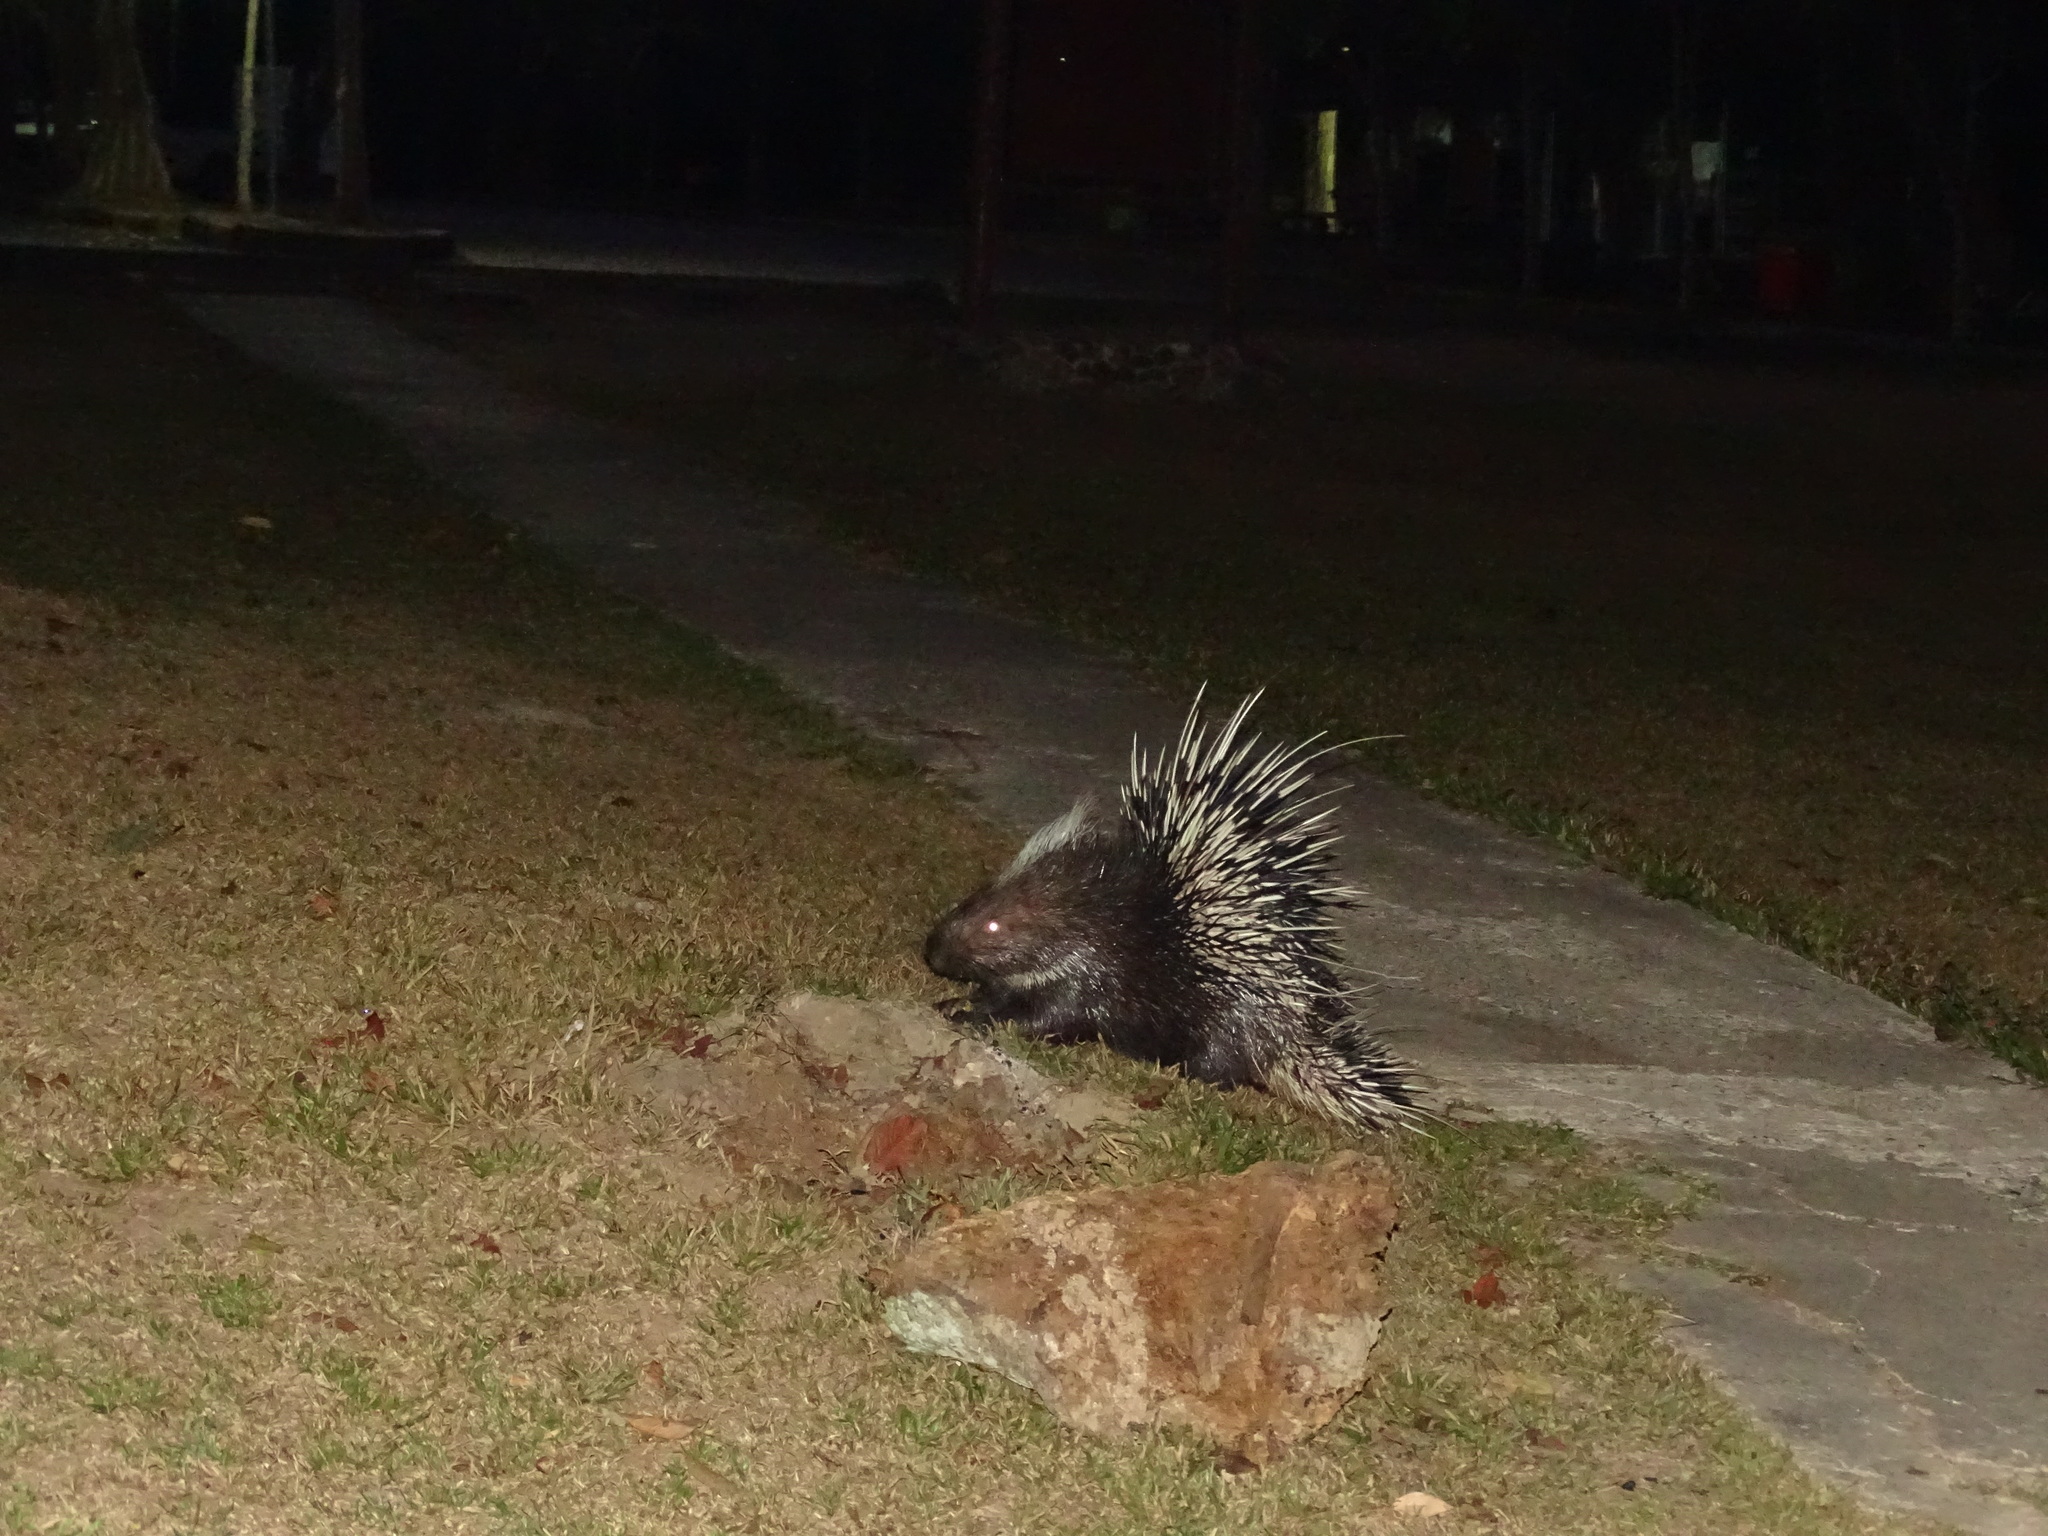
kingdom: Animalia
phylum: Chordata
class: Mammalia
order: Rodentia
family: Hystricidae
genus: Hystrix
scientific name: Hystrix brachyura
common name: Malayan porcupine
